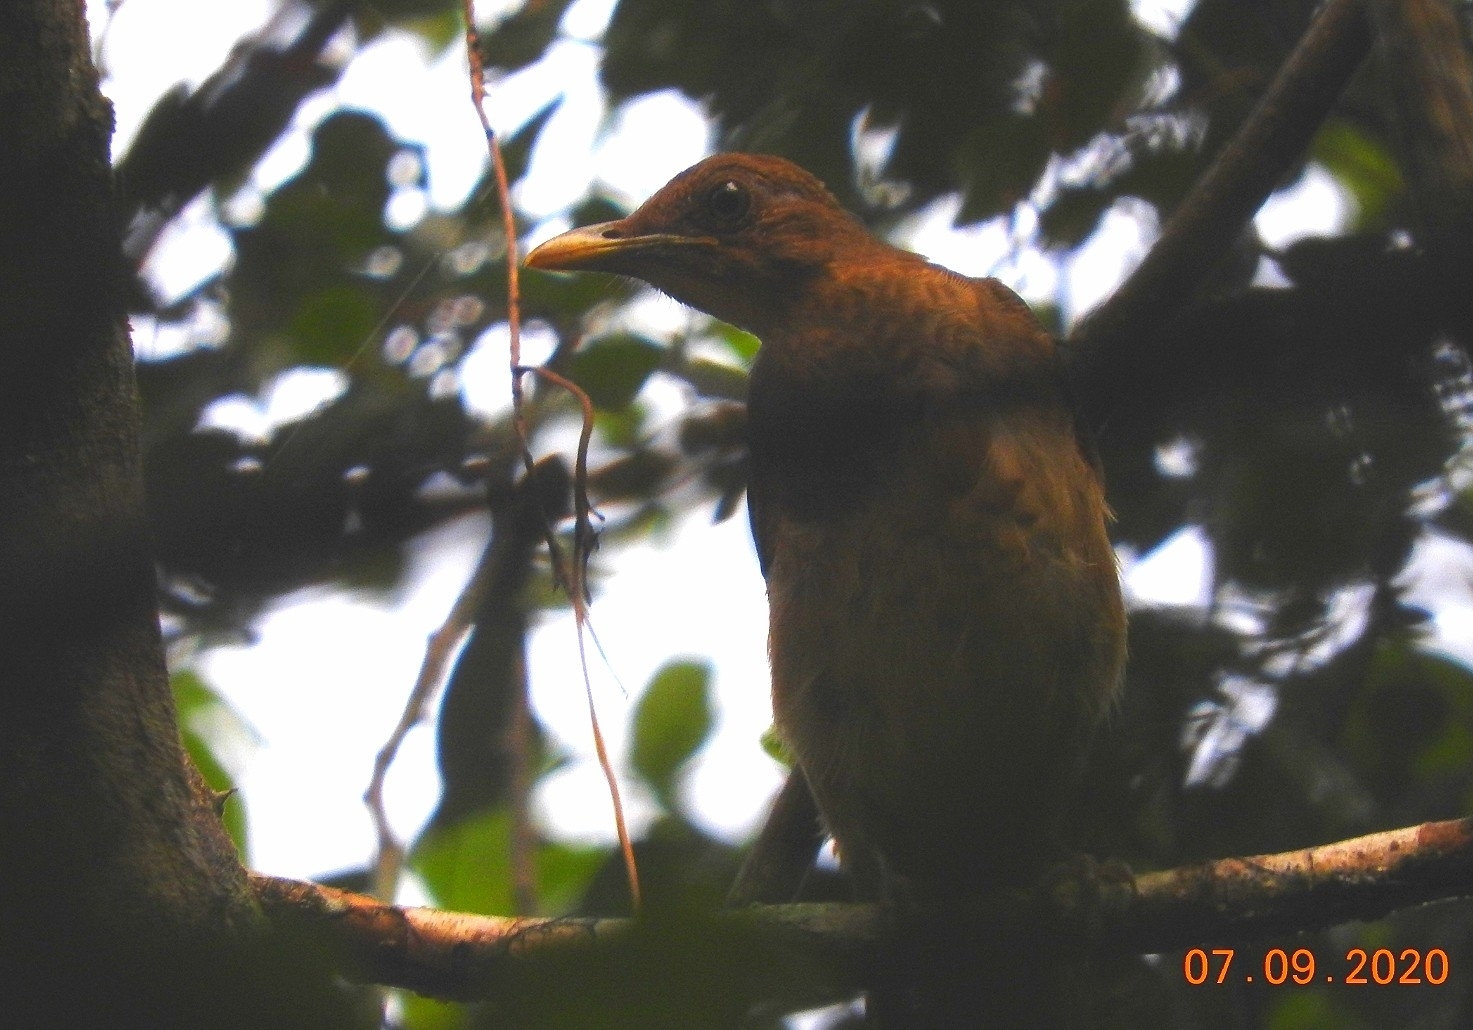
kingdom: Animalia
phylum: Chordata
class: Aves
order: Passeriformes
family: Turdidae
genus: Turdus
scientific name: Turdus grayi
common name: Clay-colored thrush
